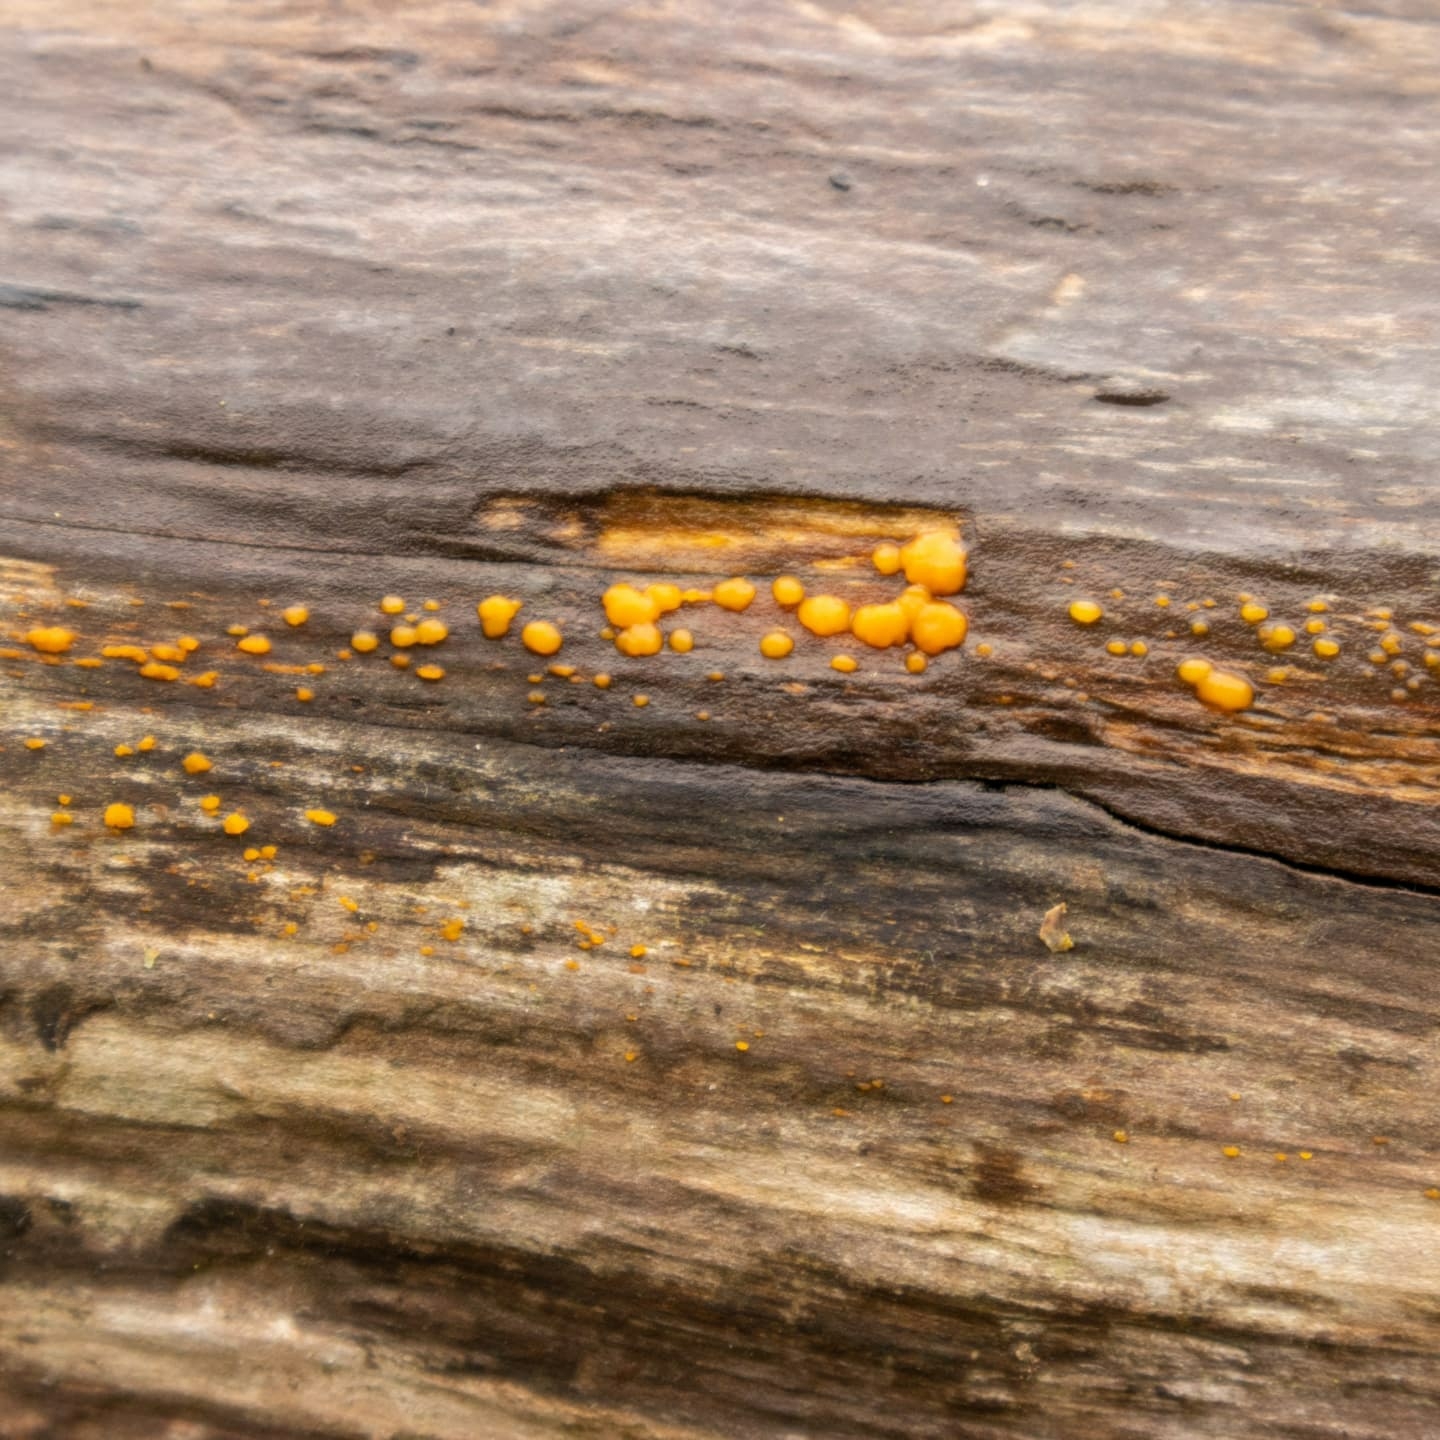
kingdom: Fungi
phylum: Basidiomycota
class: Dacrymycetes
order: Dacrymycetales
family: Dacrymycetaceae
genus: Dacrymyces
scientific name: Dacrymyces stillatus
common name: Common jelly spot
